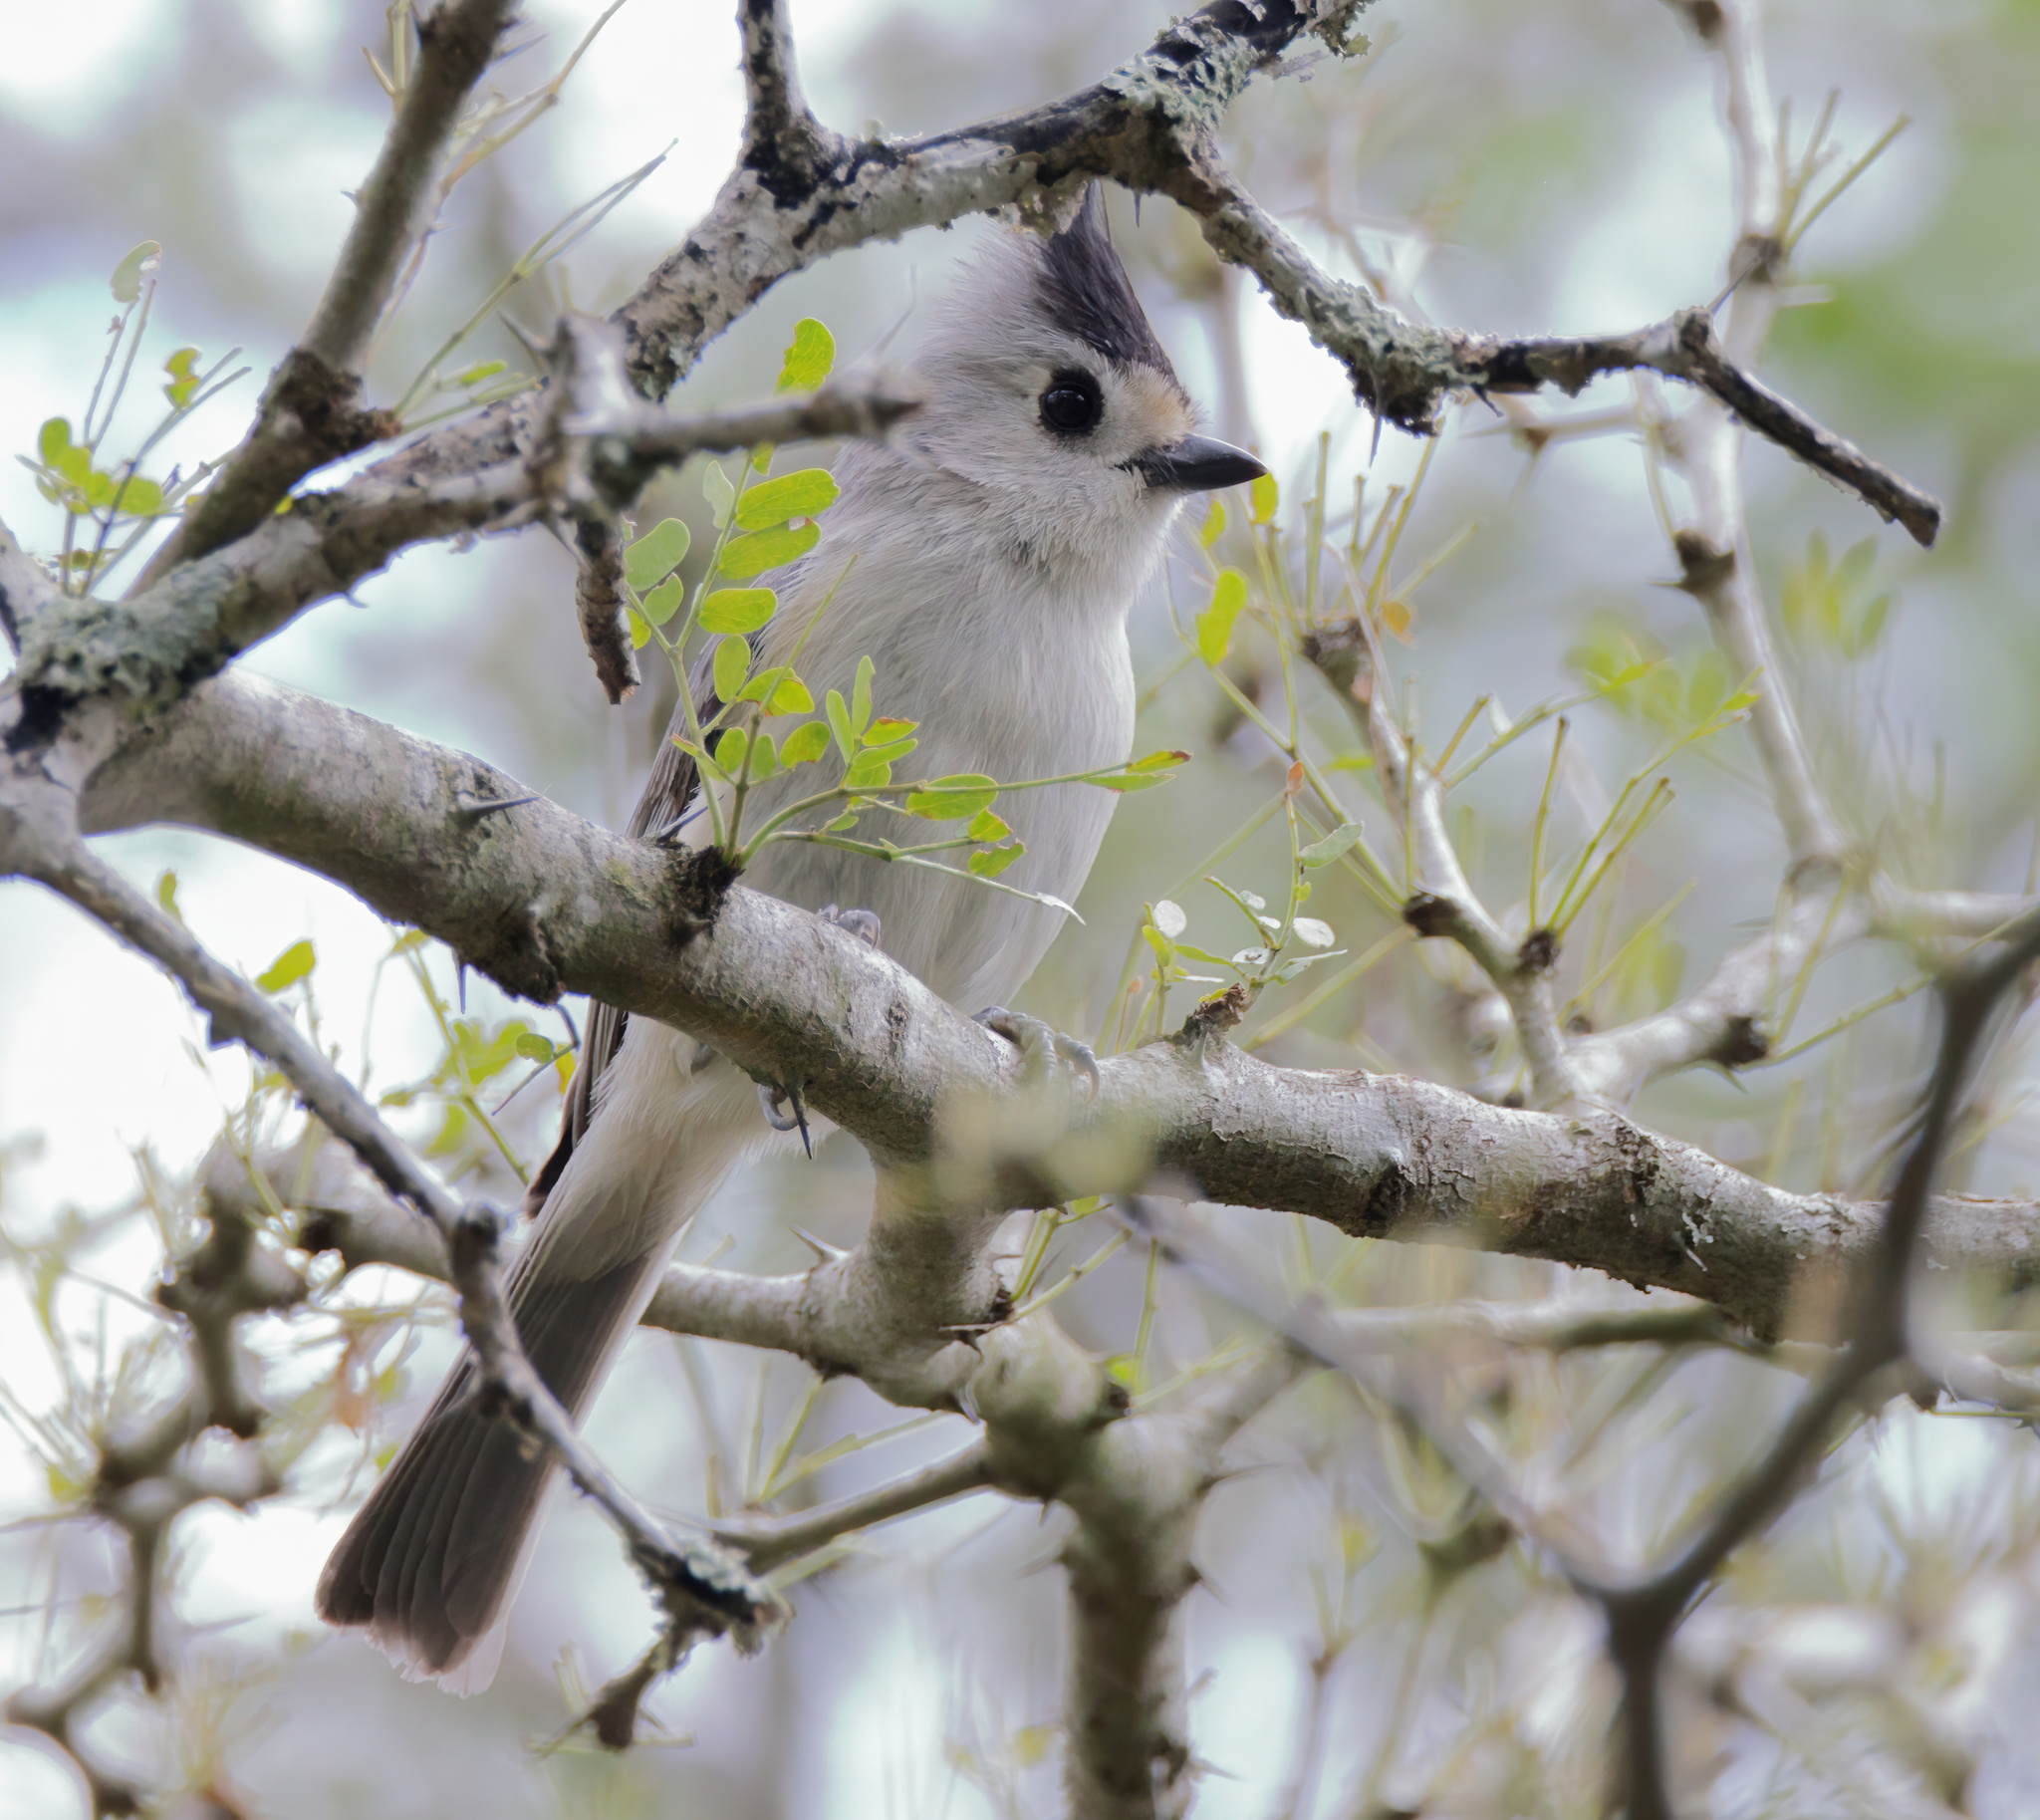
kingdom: Animalia
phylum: Chordata
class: Aves
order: Passeriformes
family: Paridae
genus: Baeolophus
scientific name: Baeolophus atricristatus
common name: Black-crested titmouse
